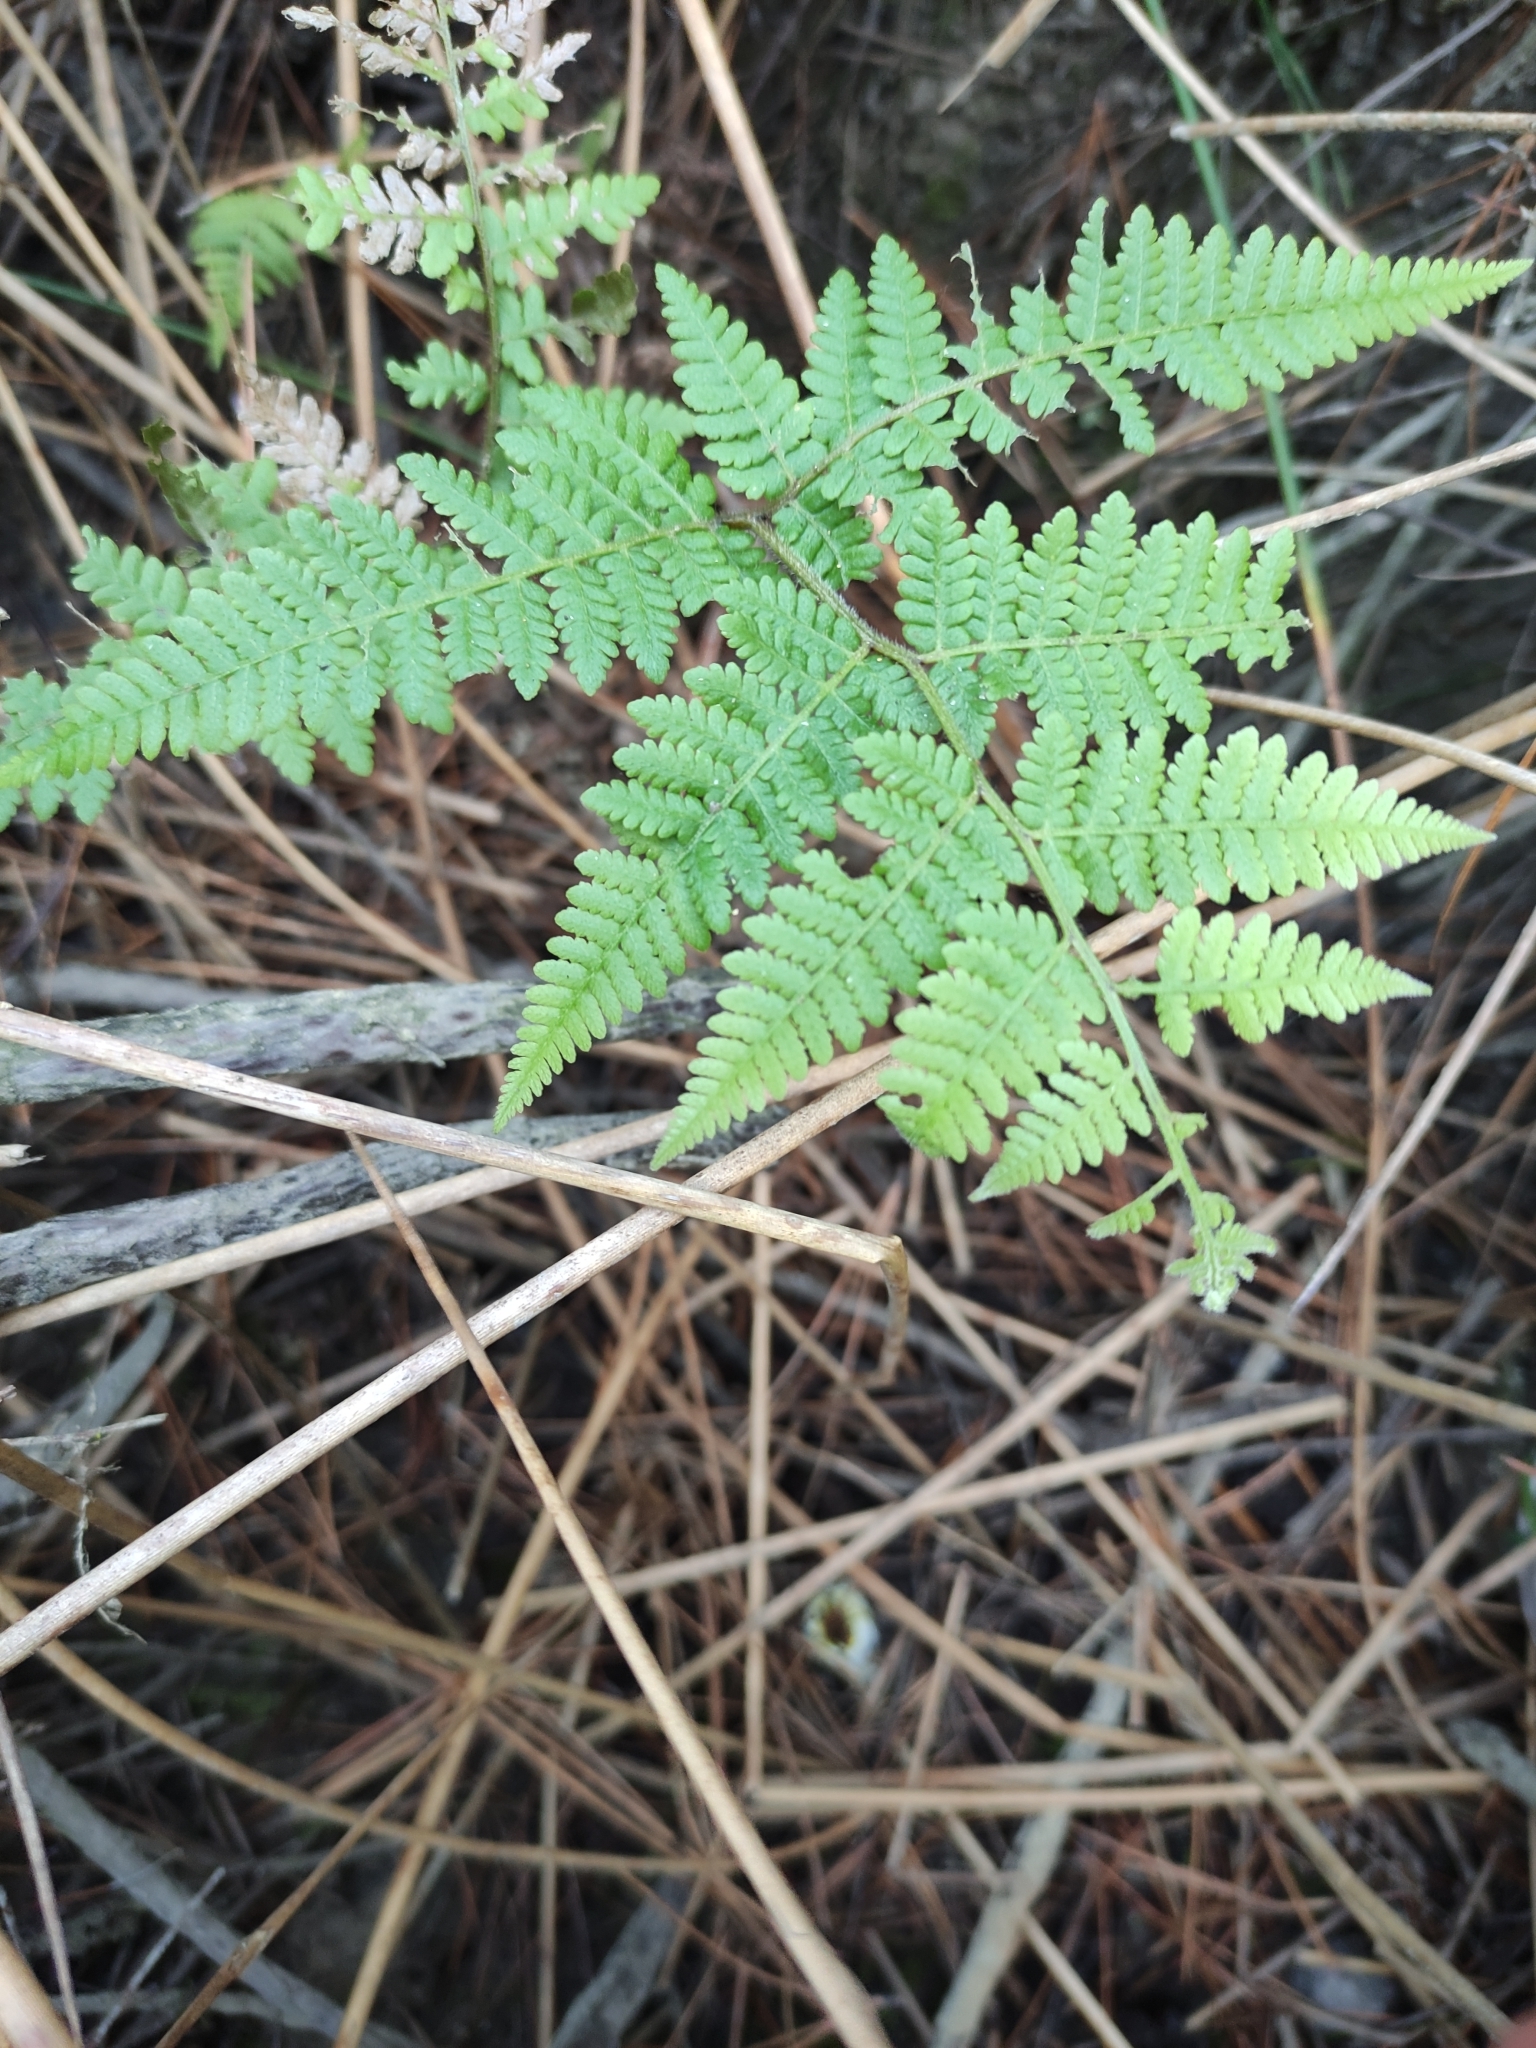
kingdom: Plantae
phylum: Tracheophyta
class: Polypodiopsida
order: Polypodiales
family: Dennstaedtiaceae
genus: Hypolepis
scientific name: Hypolepis ambigua
